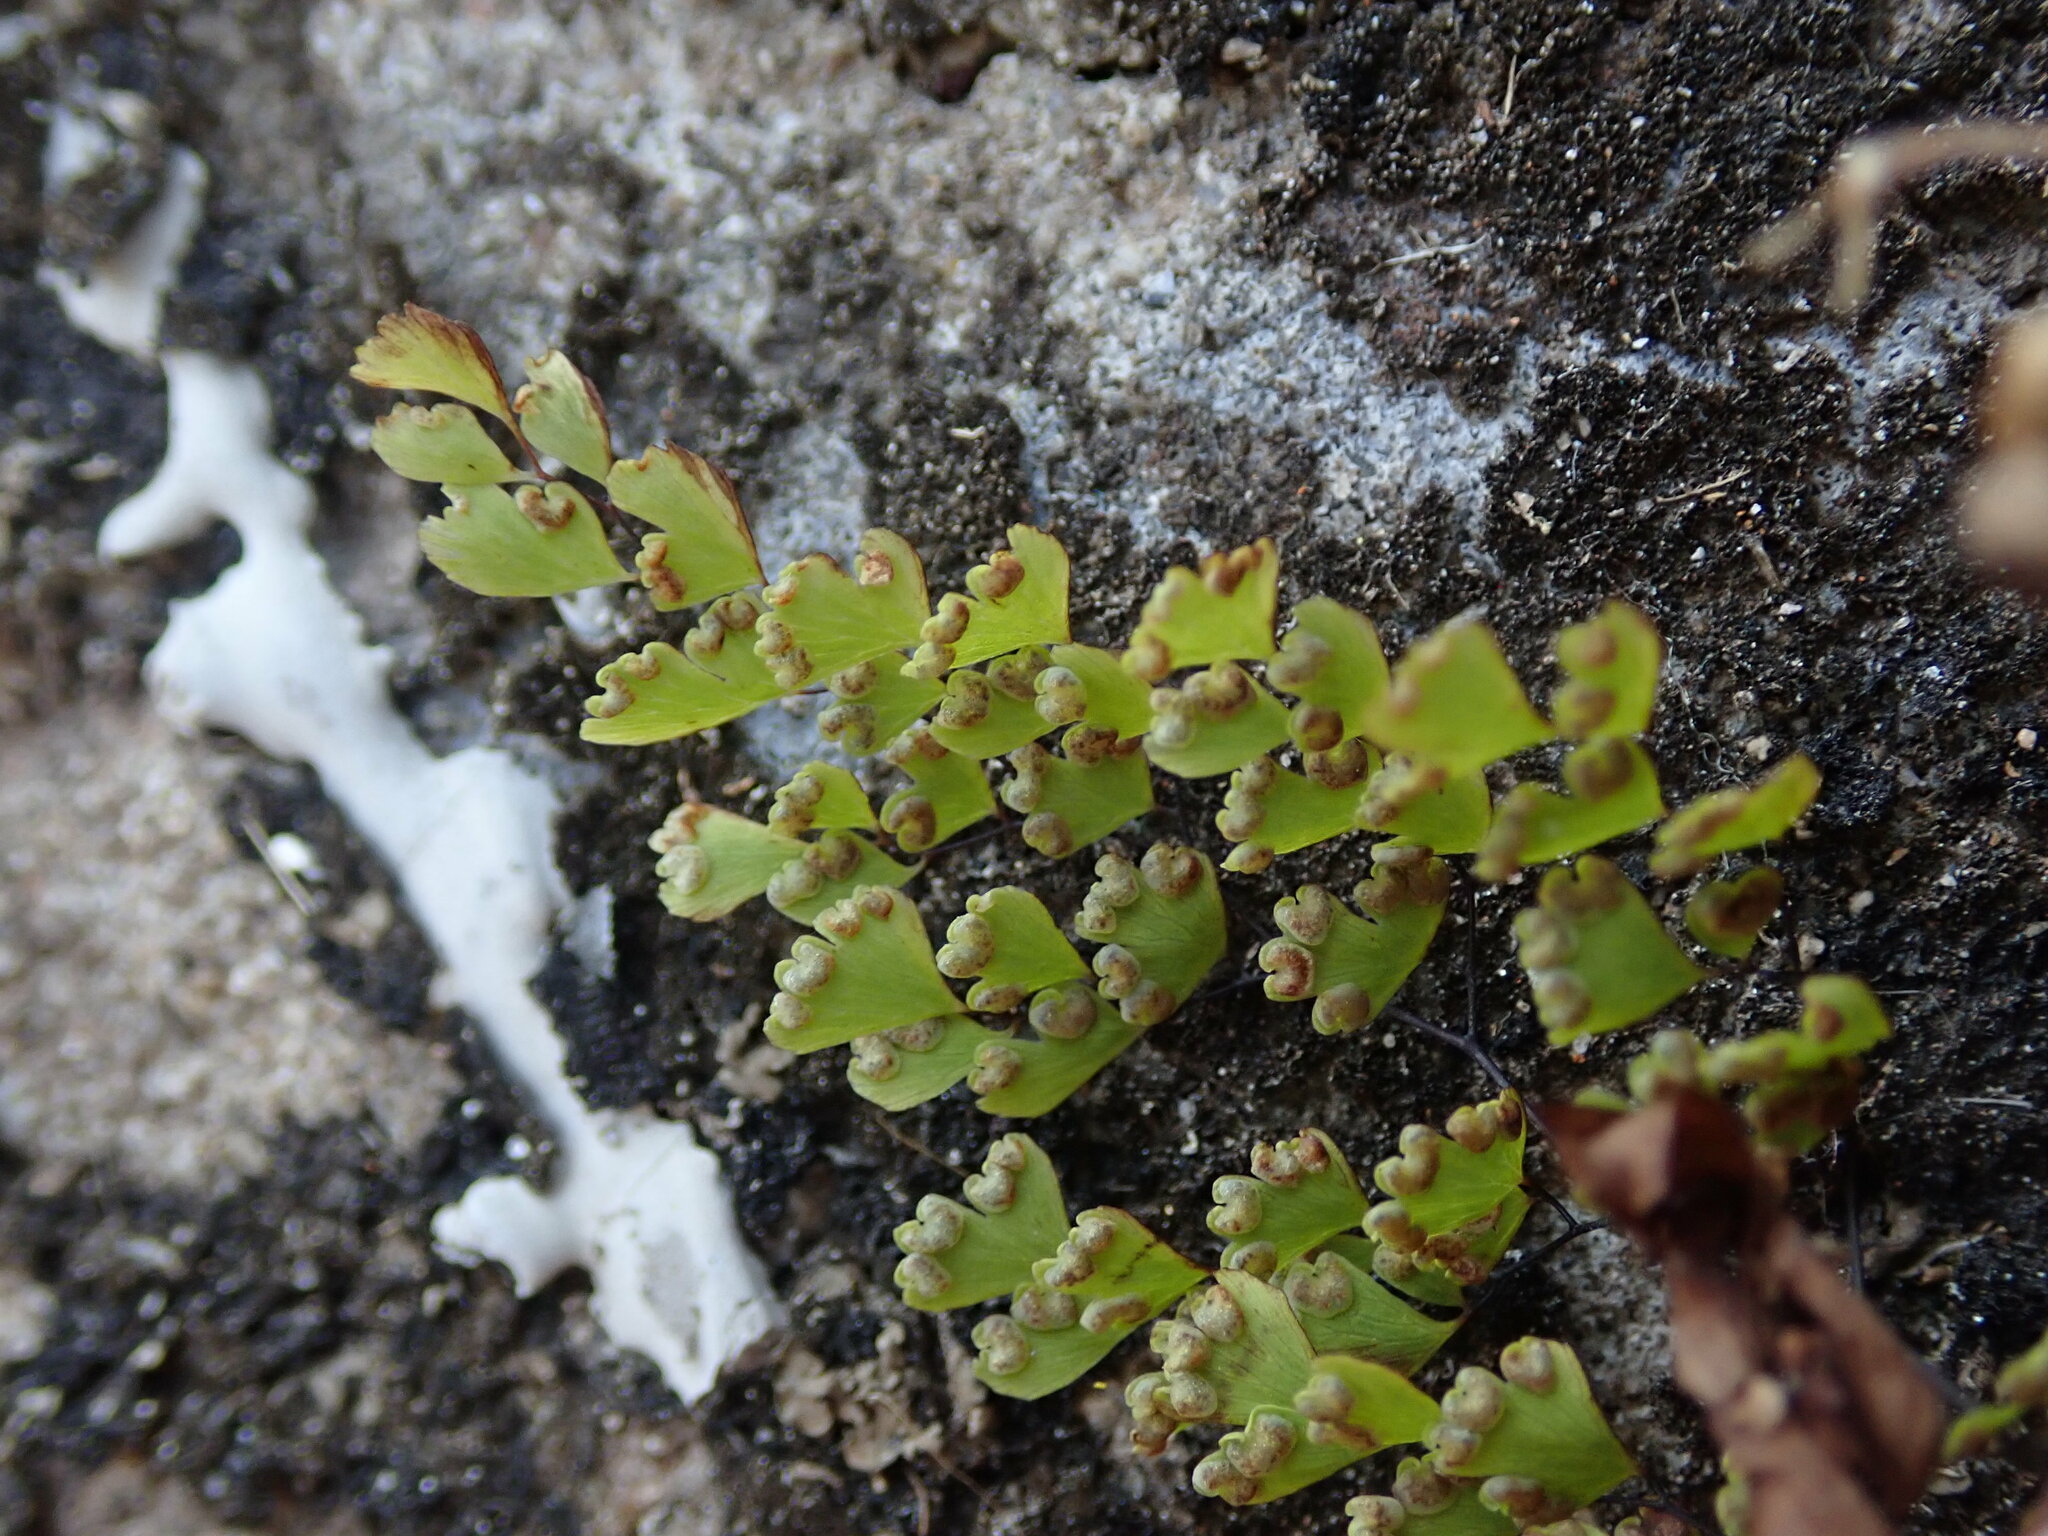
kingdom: Plantae
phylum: Tracheophyta
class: Polypodiopsida
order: Polypodiales
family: Pteridaceae
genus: Adiantum
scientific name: Adiantum capillus-veneris
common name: Maidenhair fern
